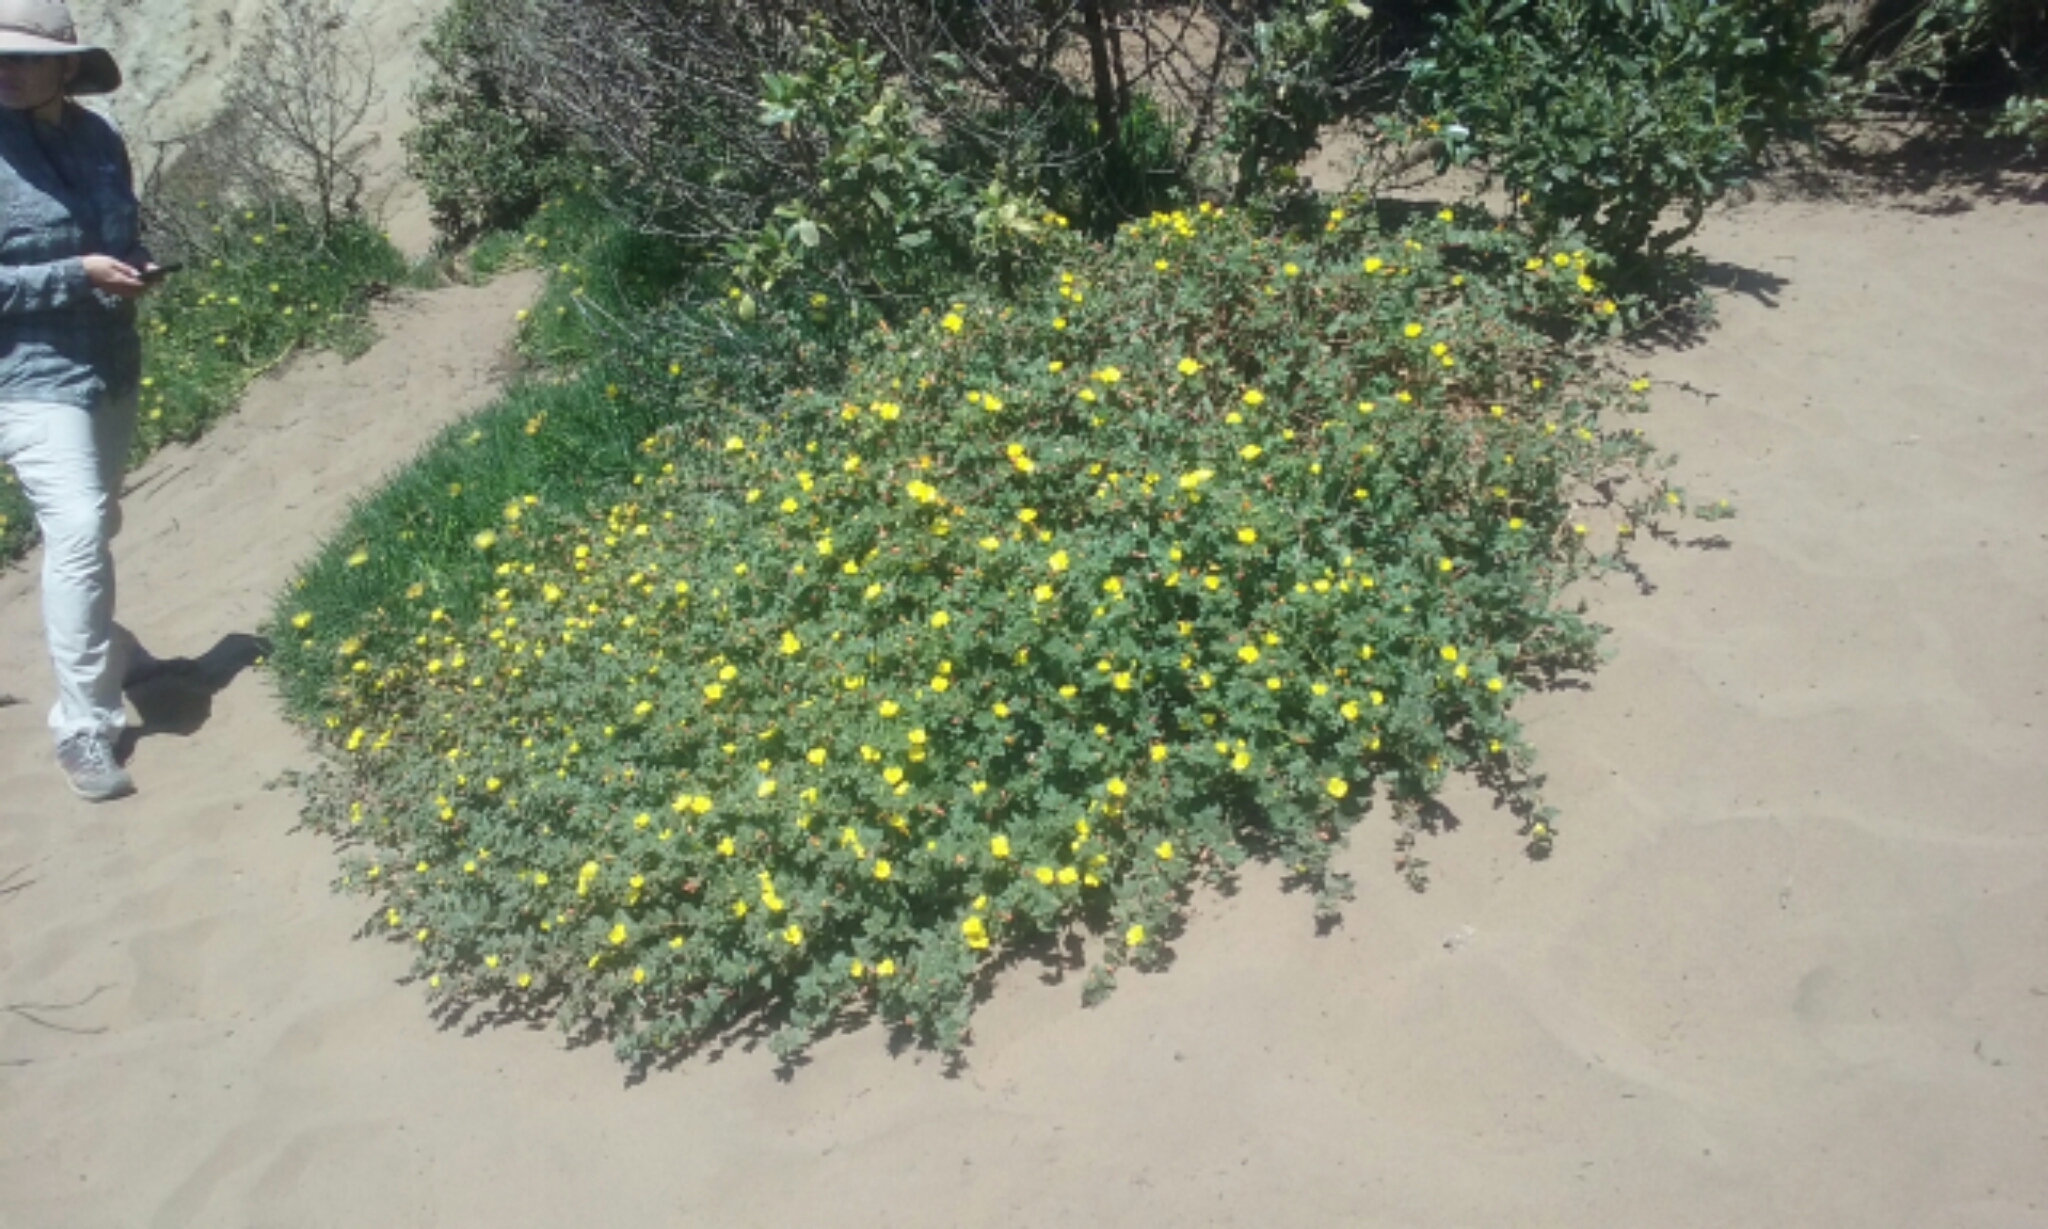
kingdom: Plantae
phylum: Tracheophyta
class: Magnoliopsida
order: Myrtales
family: Onagraceae
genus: Camissoniopsis
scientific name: Camissoniopsis cheiranthifolia
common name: Beach suncup
